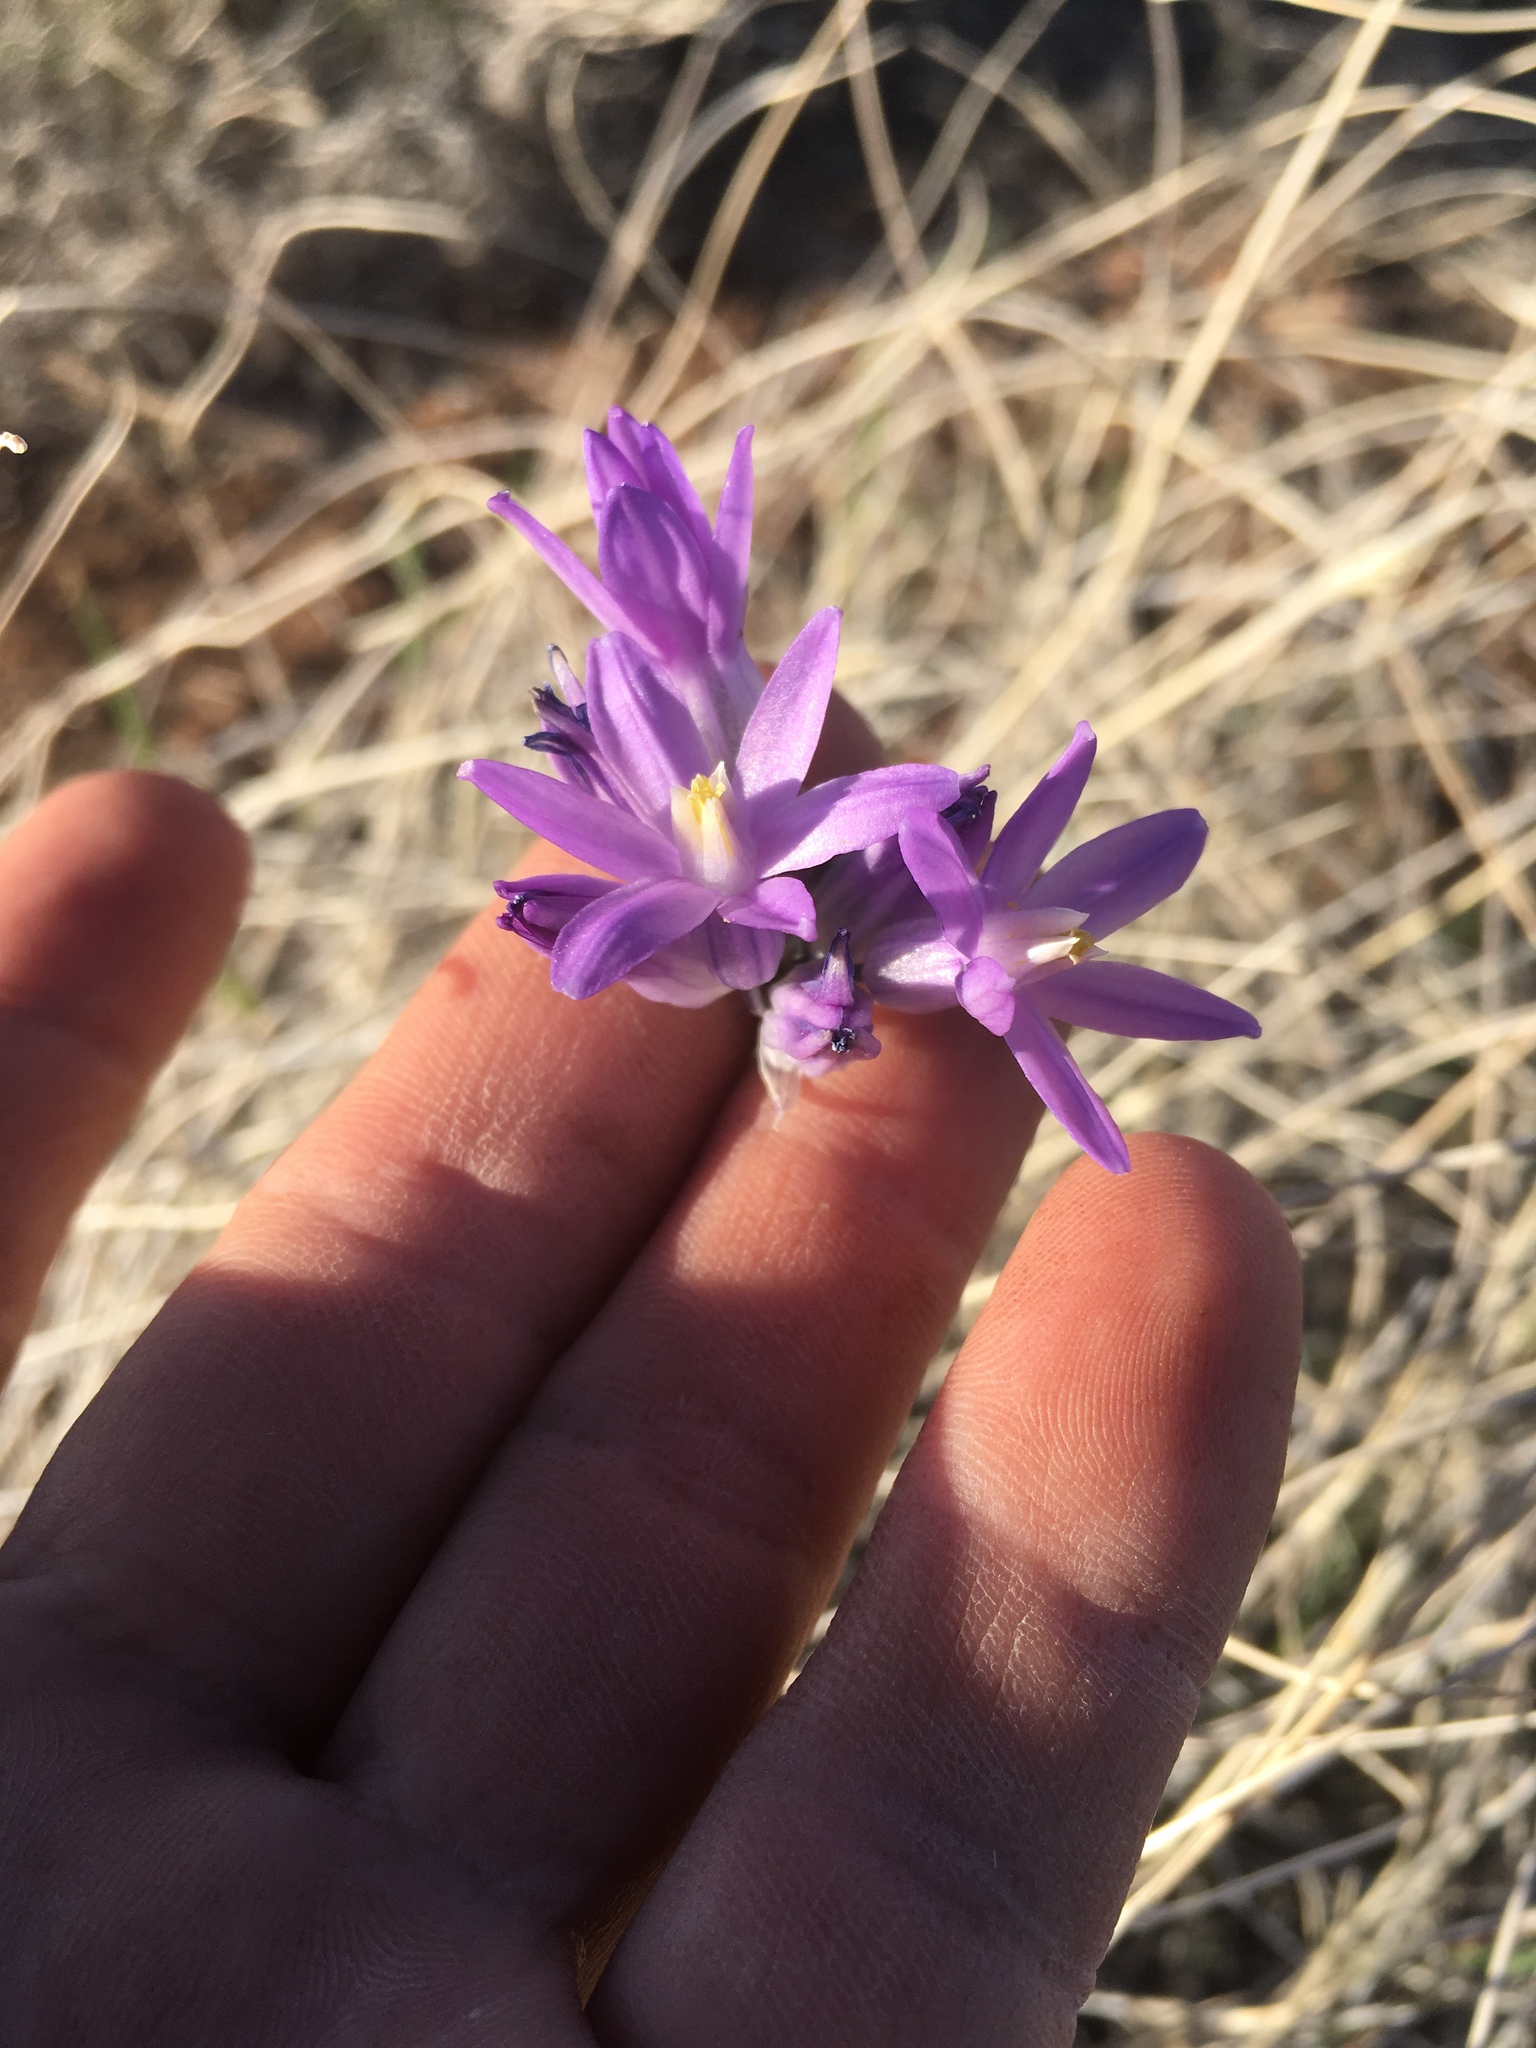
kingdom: Plantae
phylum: Tracheophyta
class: Liliopsida
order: Asparagales
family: Asparagaceae
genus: Dipterostemon
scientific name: Dipterostemon capitatus
